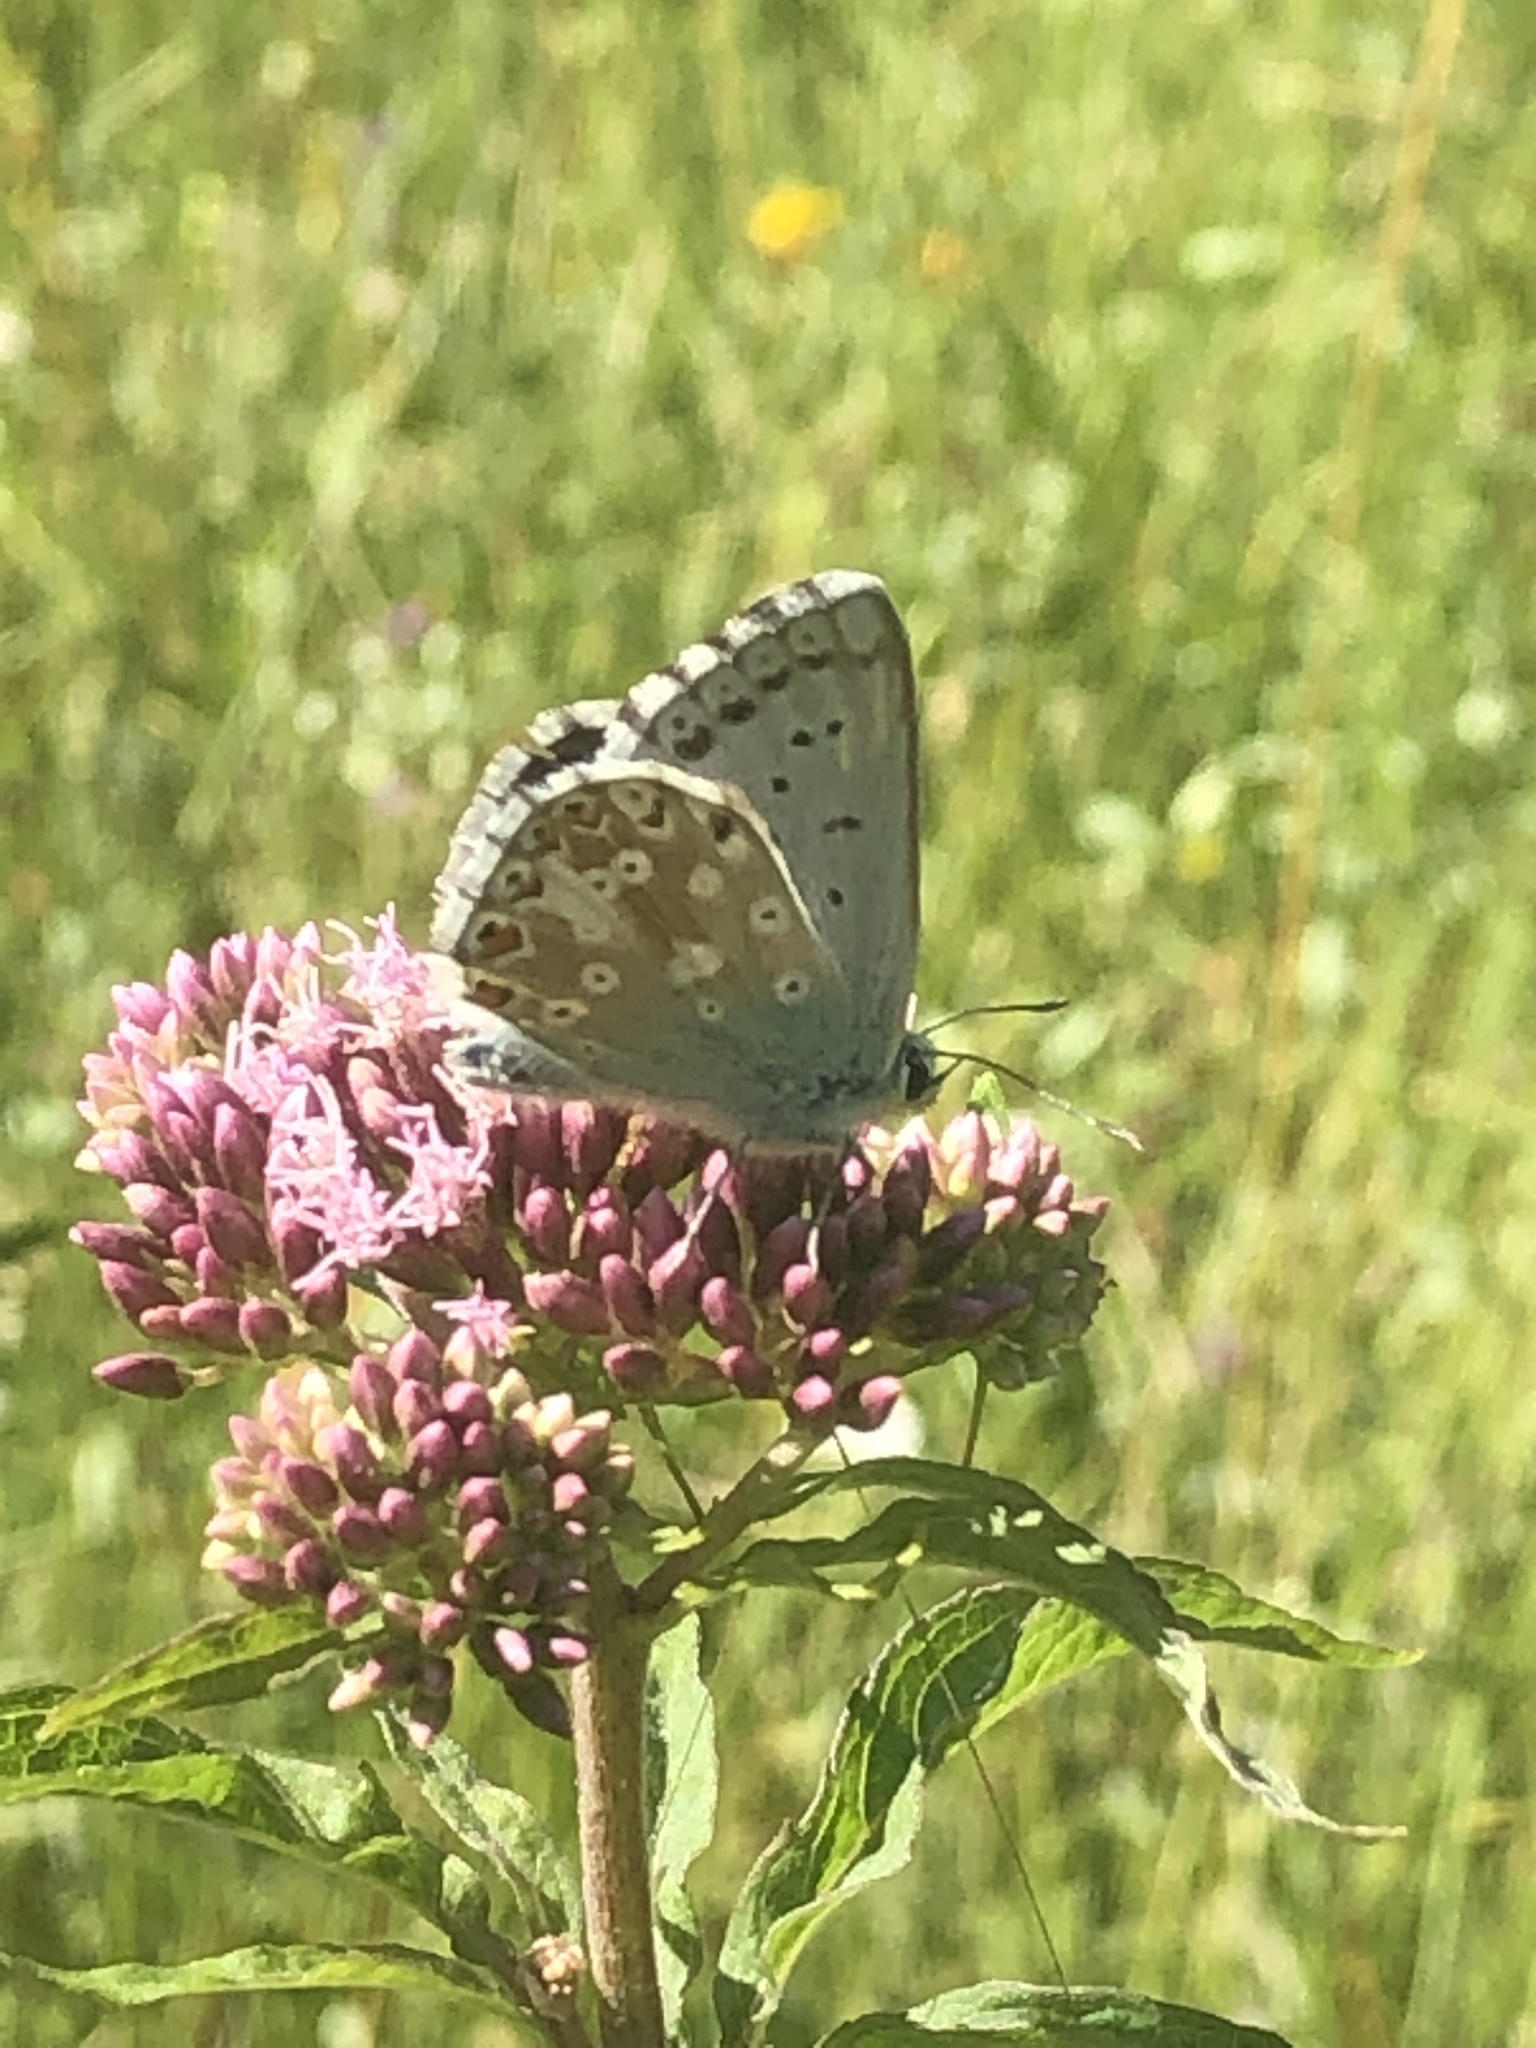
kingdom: Animalia
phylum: Arthropoda
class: Insecta
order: Lepidoptera
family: Lycaenidae
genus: Polyommatus
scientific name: Polyommatus icarus
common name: Common blue
